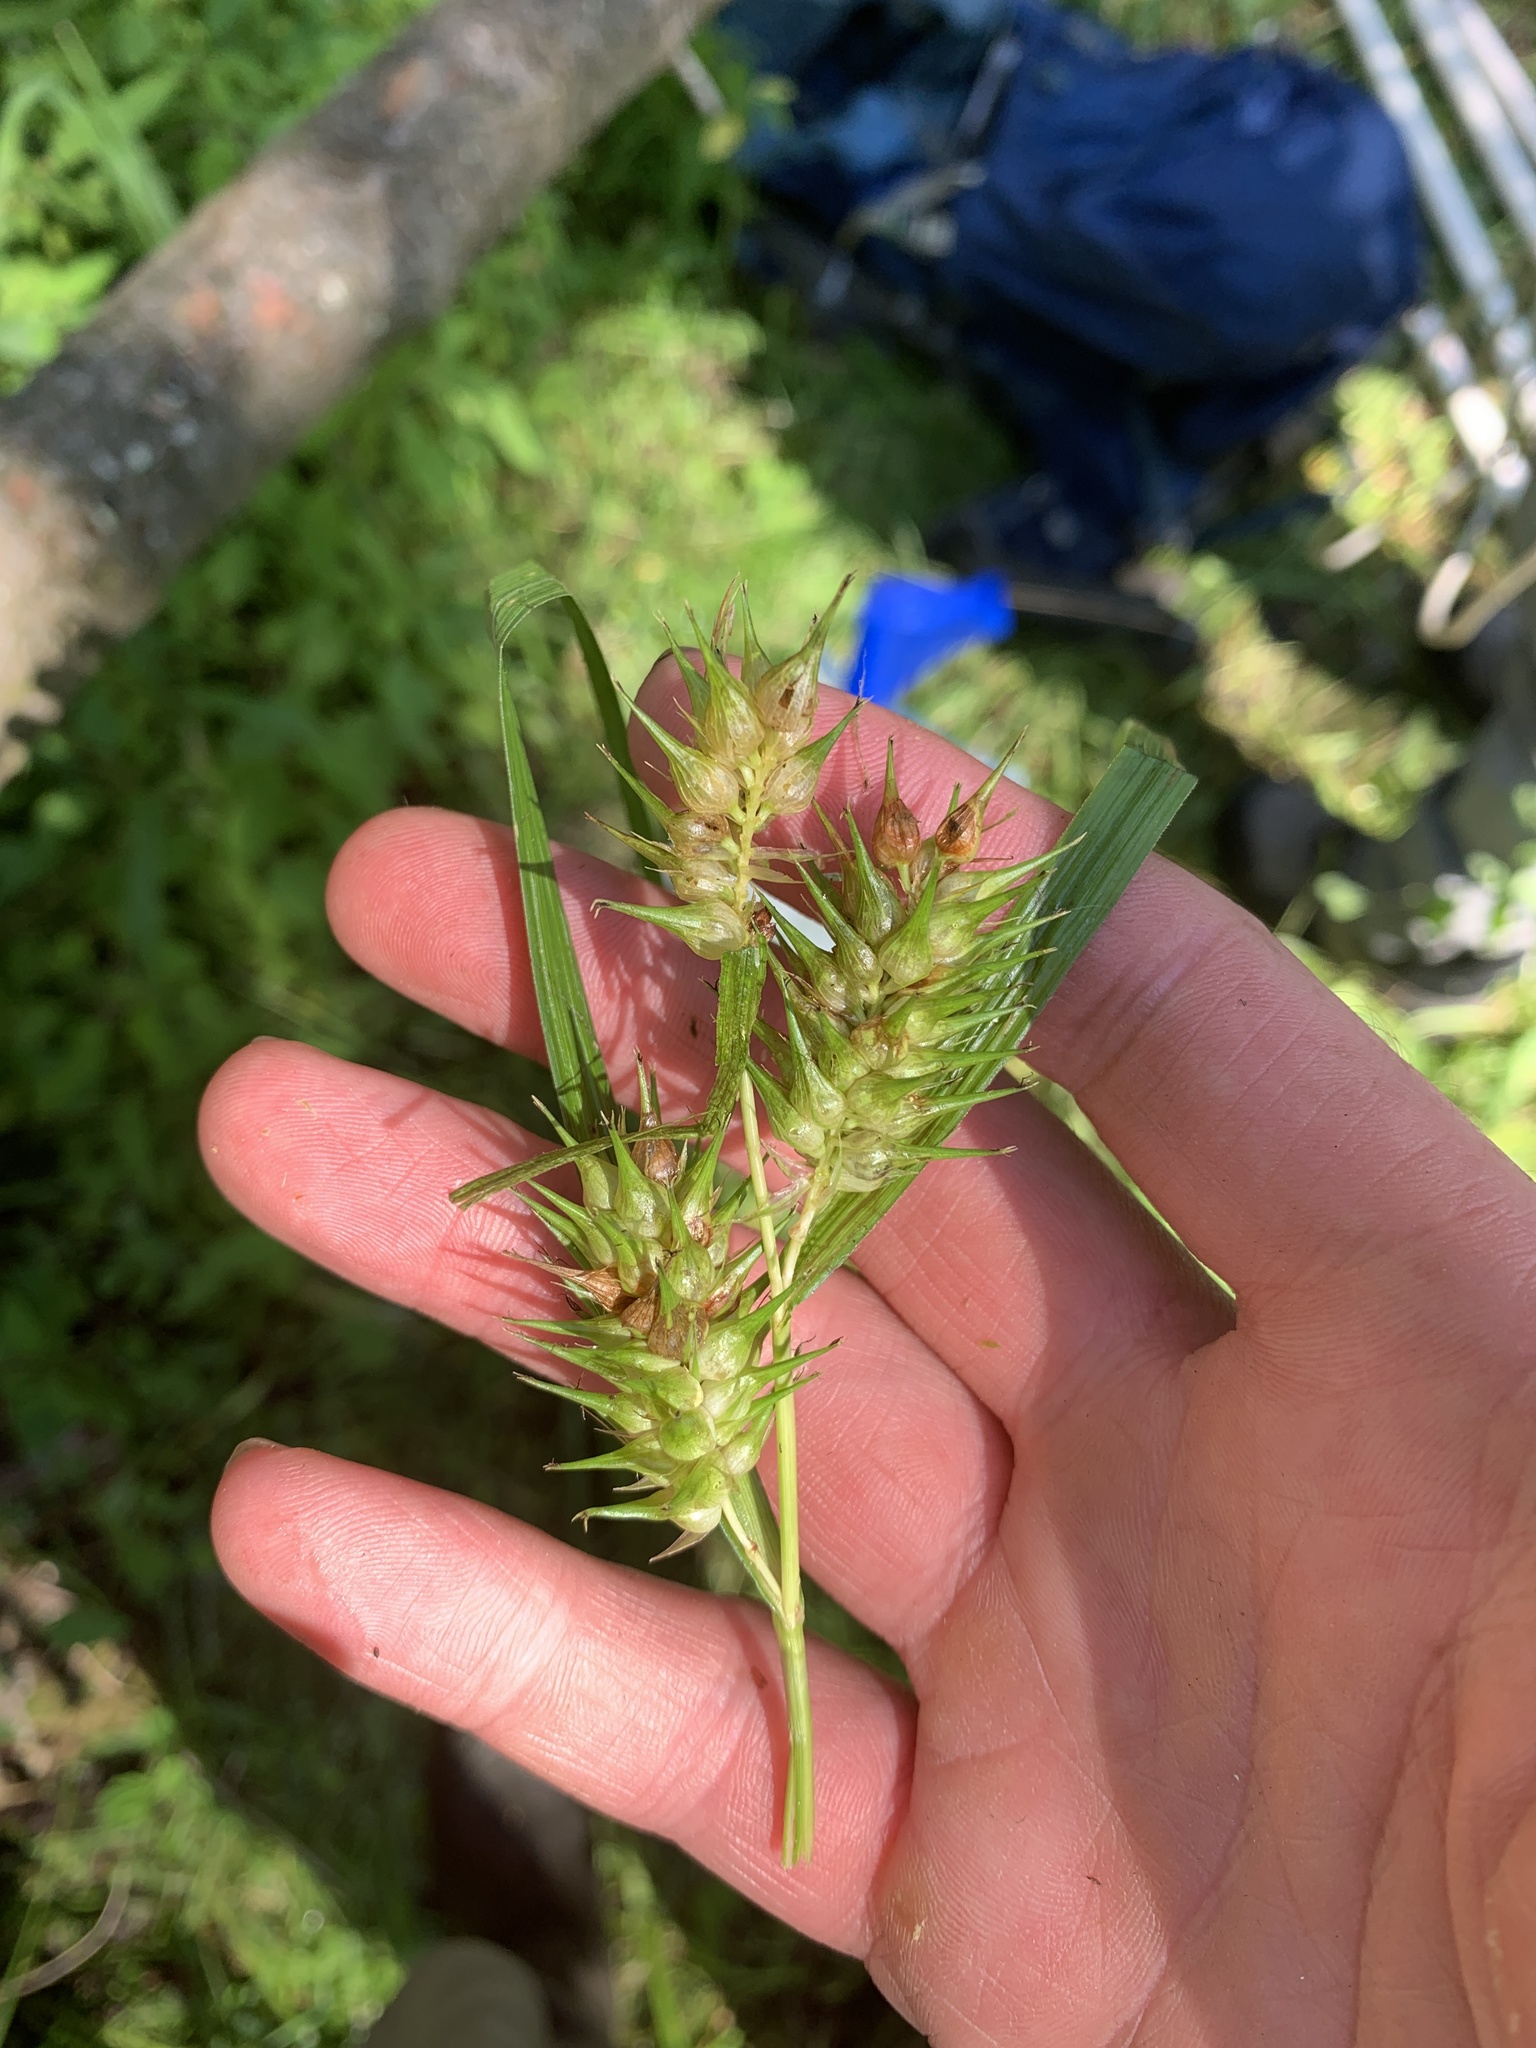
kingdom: Plantae
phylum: Tracheophyta
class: Liliopsida
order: Poales
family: Cyperaceae
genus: Carex
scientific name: Carex lupulina
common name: Hop sedge
